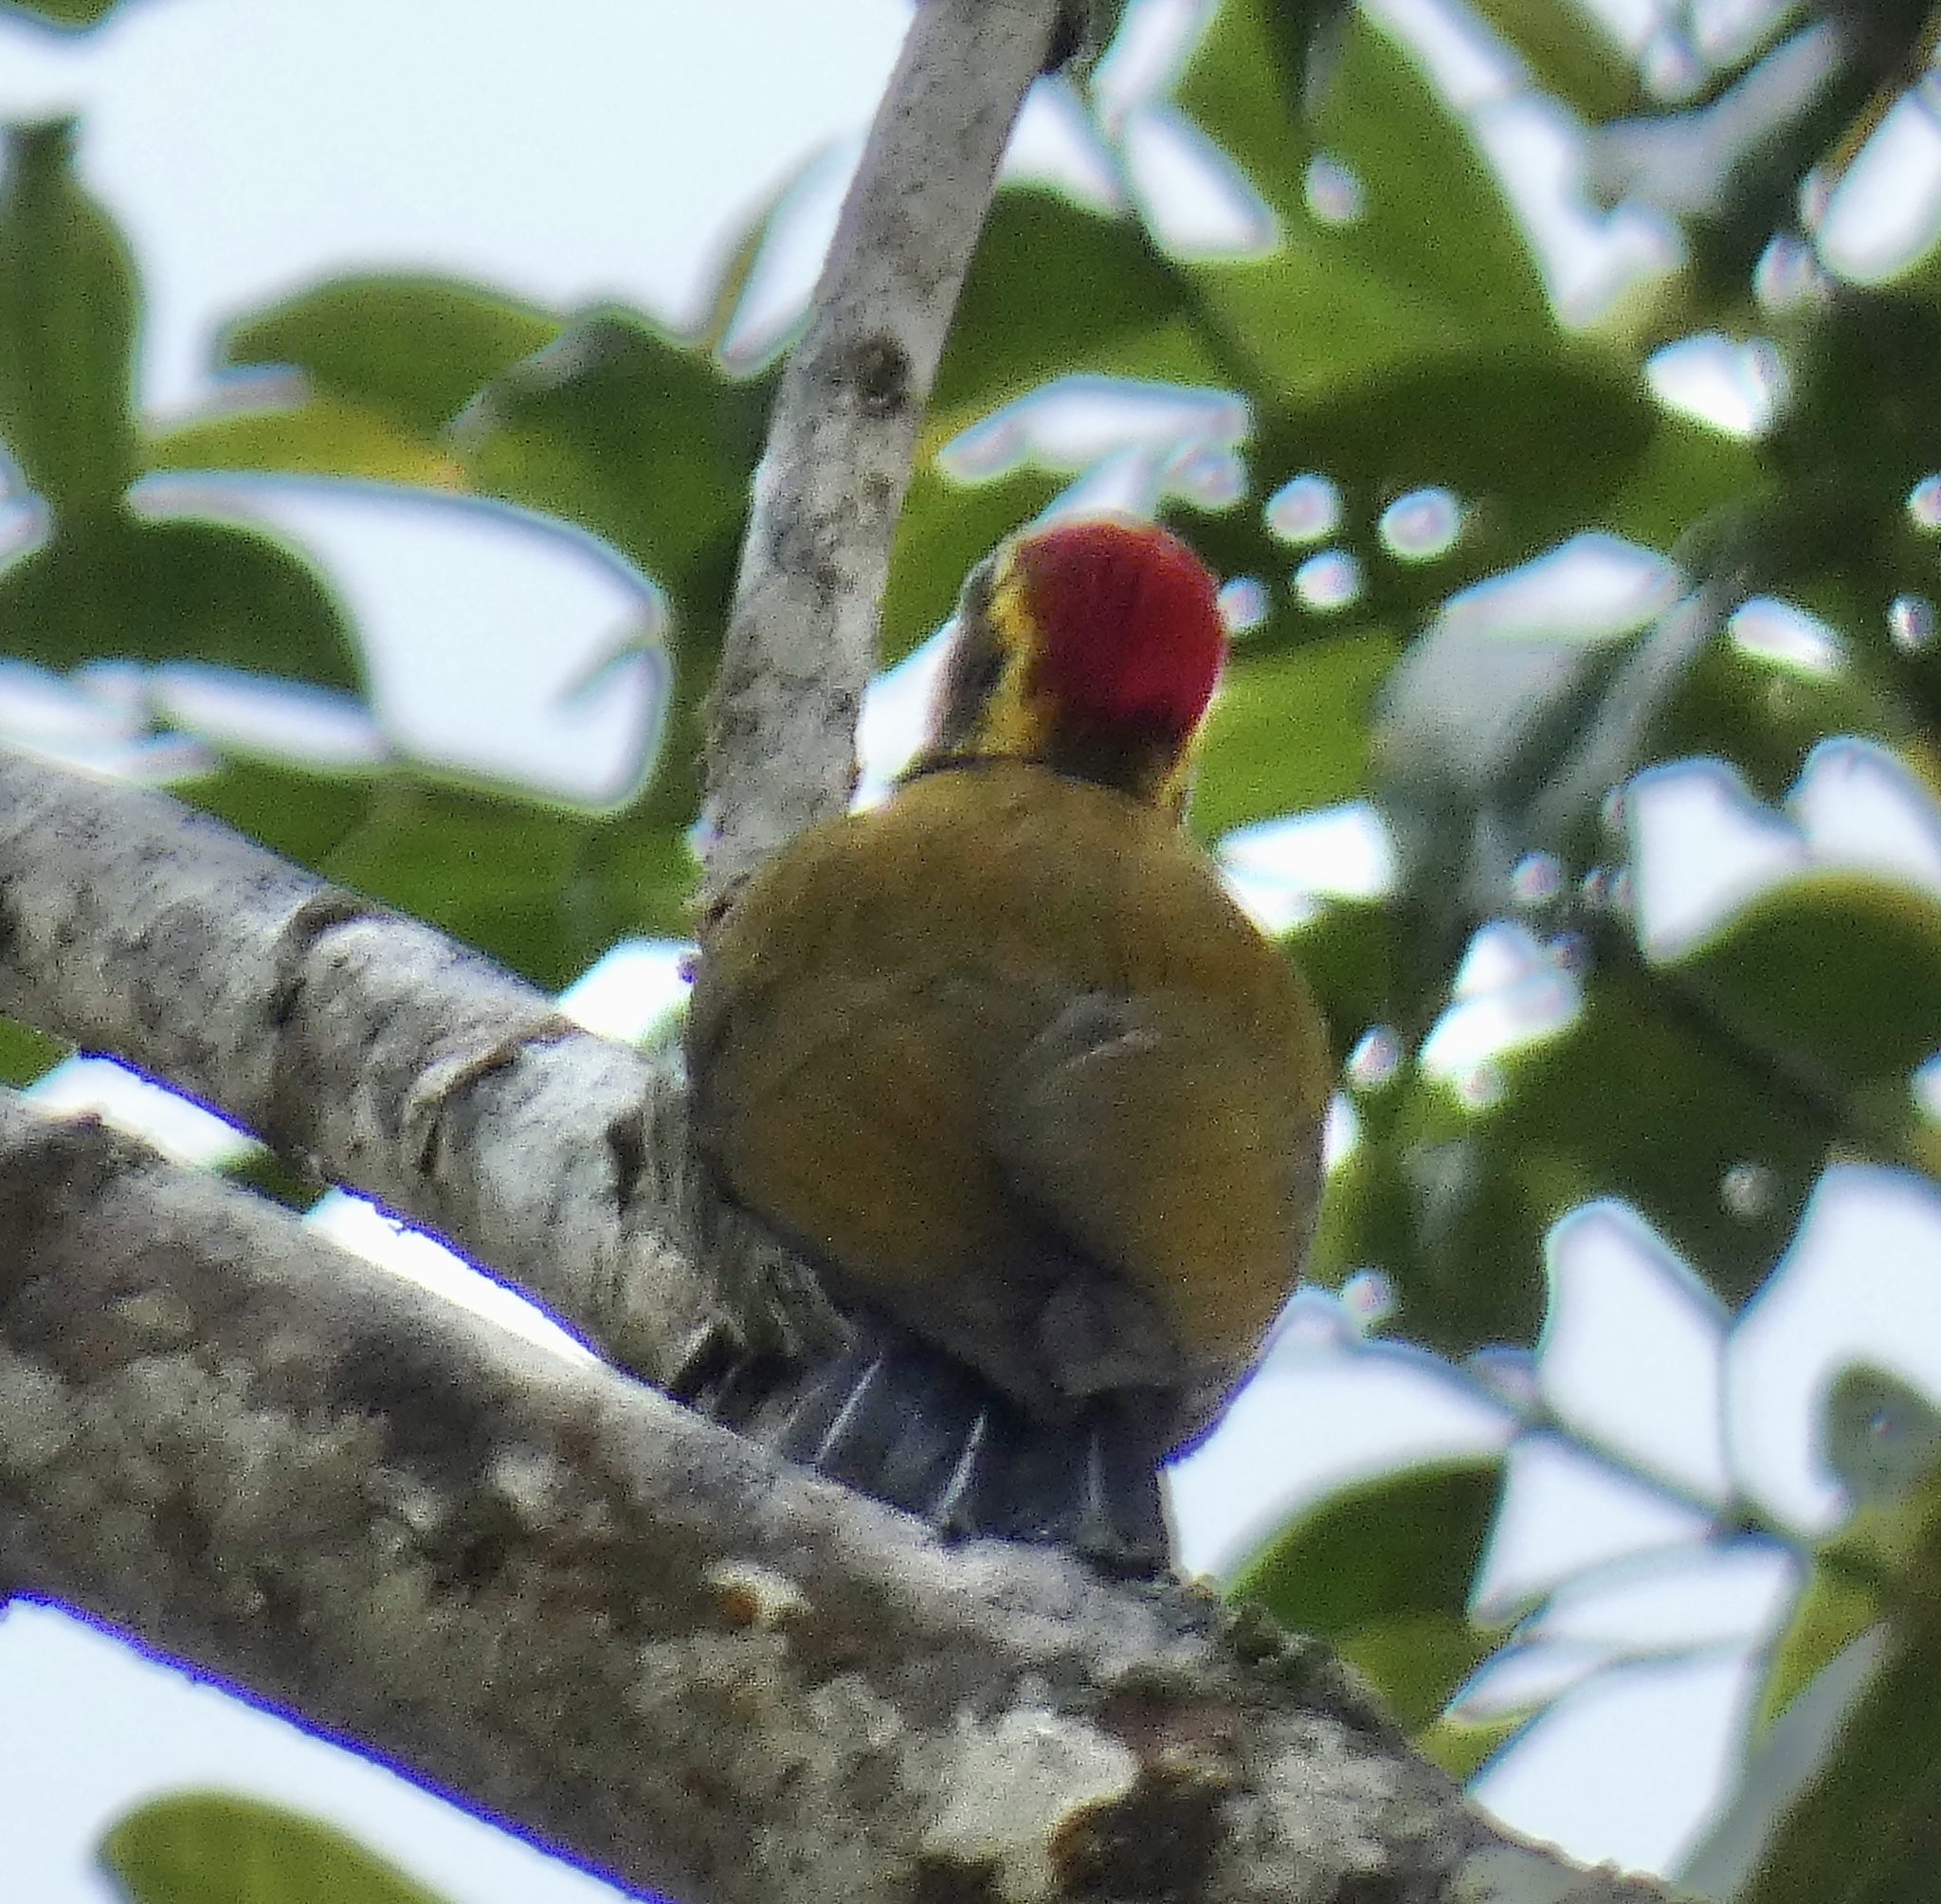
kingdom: Animalia
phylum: Chordata
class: Aves
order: Piciformes
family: Picidae
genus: Piculus
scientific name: Piculus aurulentus
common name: Yellow-browed woodpecker
